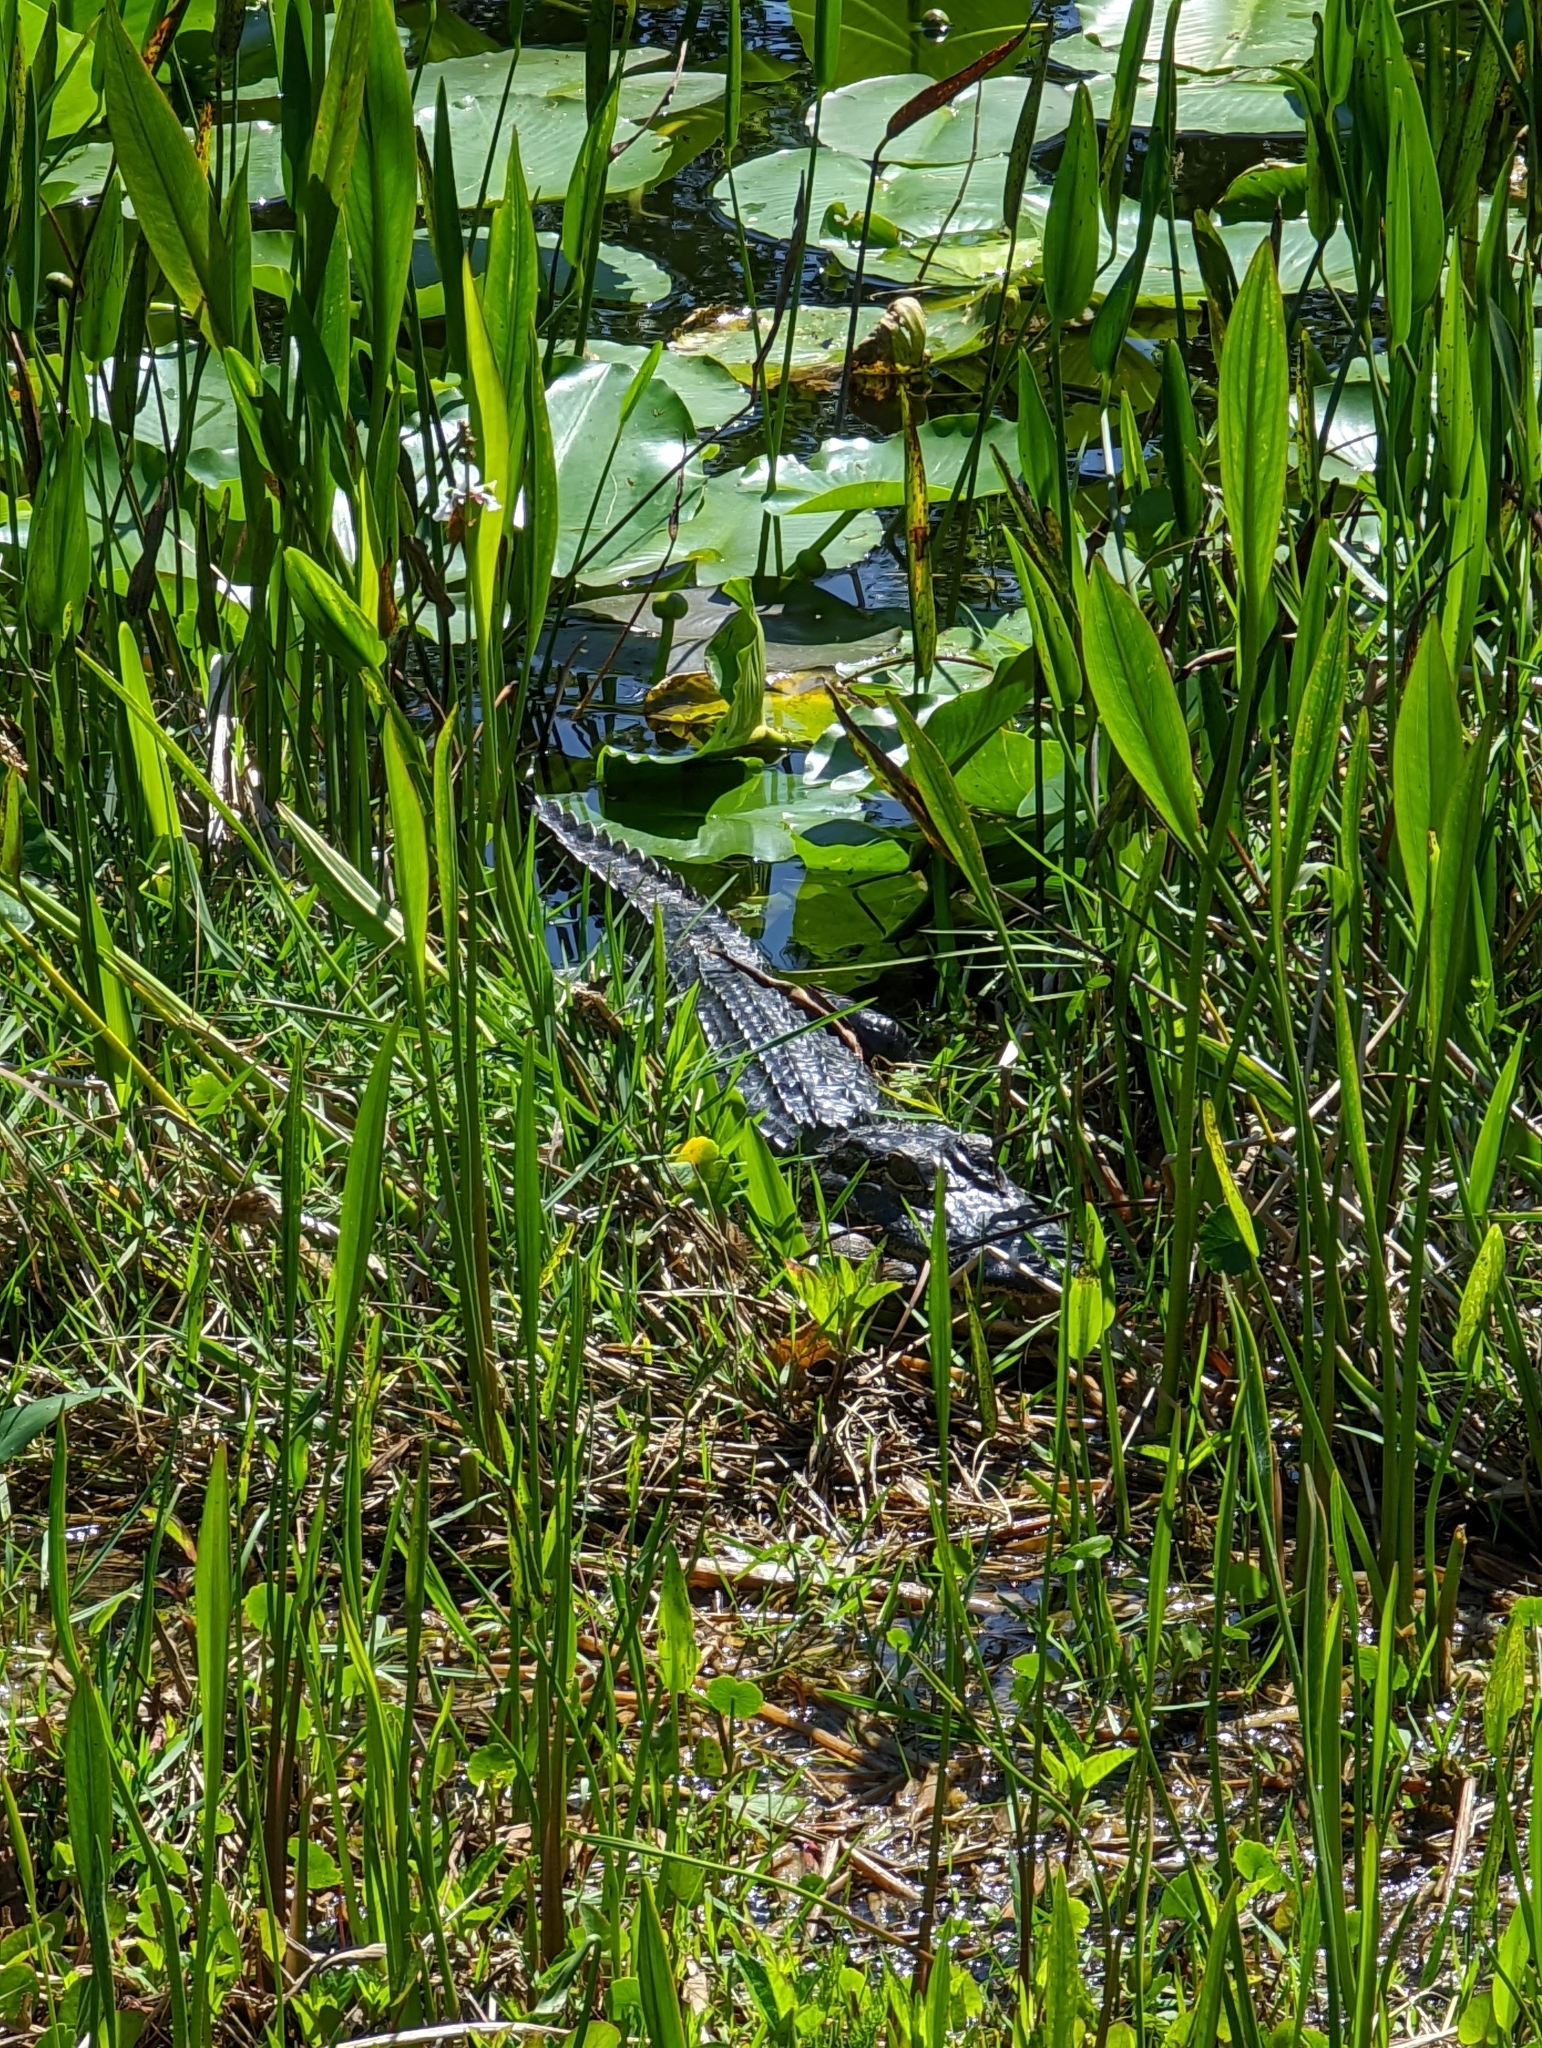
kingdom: Animalia
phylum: Chordata
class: Crocodylia
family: Alligatoridae
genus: Alligator
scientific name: Alligator mississippiensis
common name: American alligator
